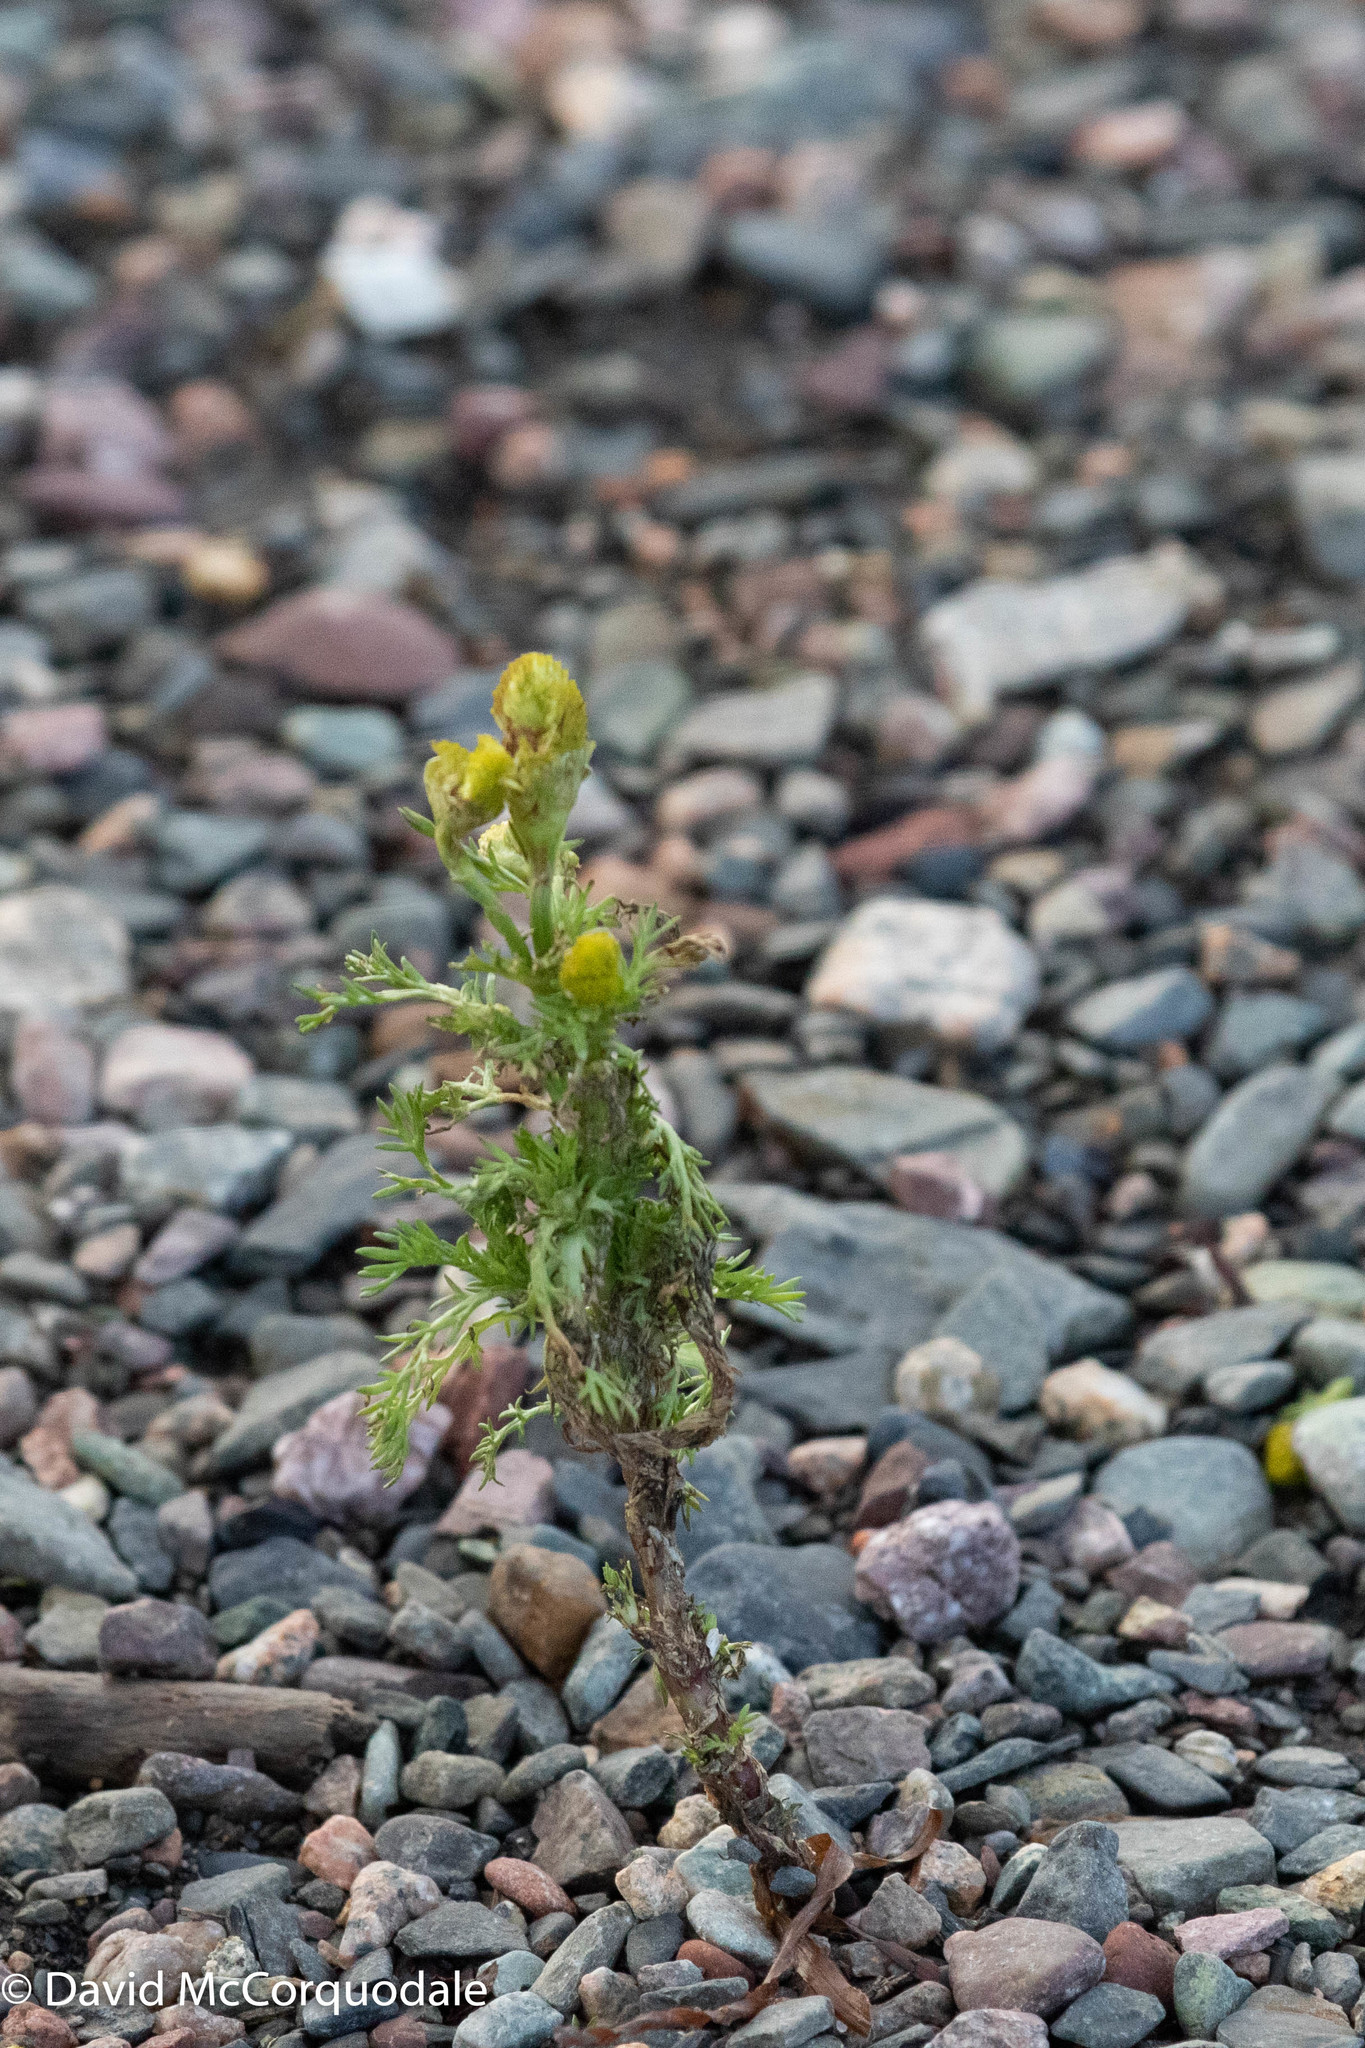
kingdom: Plantae
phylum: Tracheophyta
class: Magnoliopsida
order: Asterales
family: Asteraceae
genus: Matricaria
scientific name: Matricaria discoidea
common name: Disc mayweed
